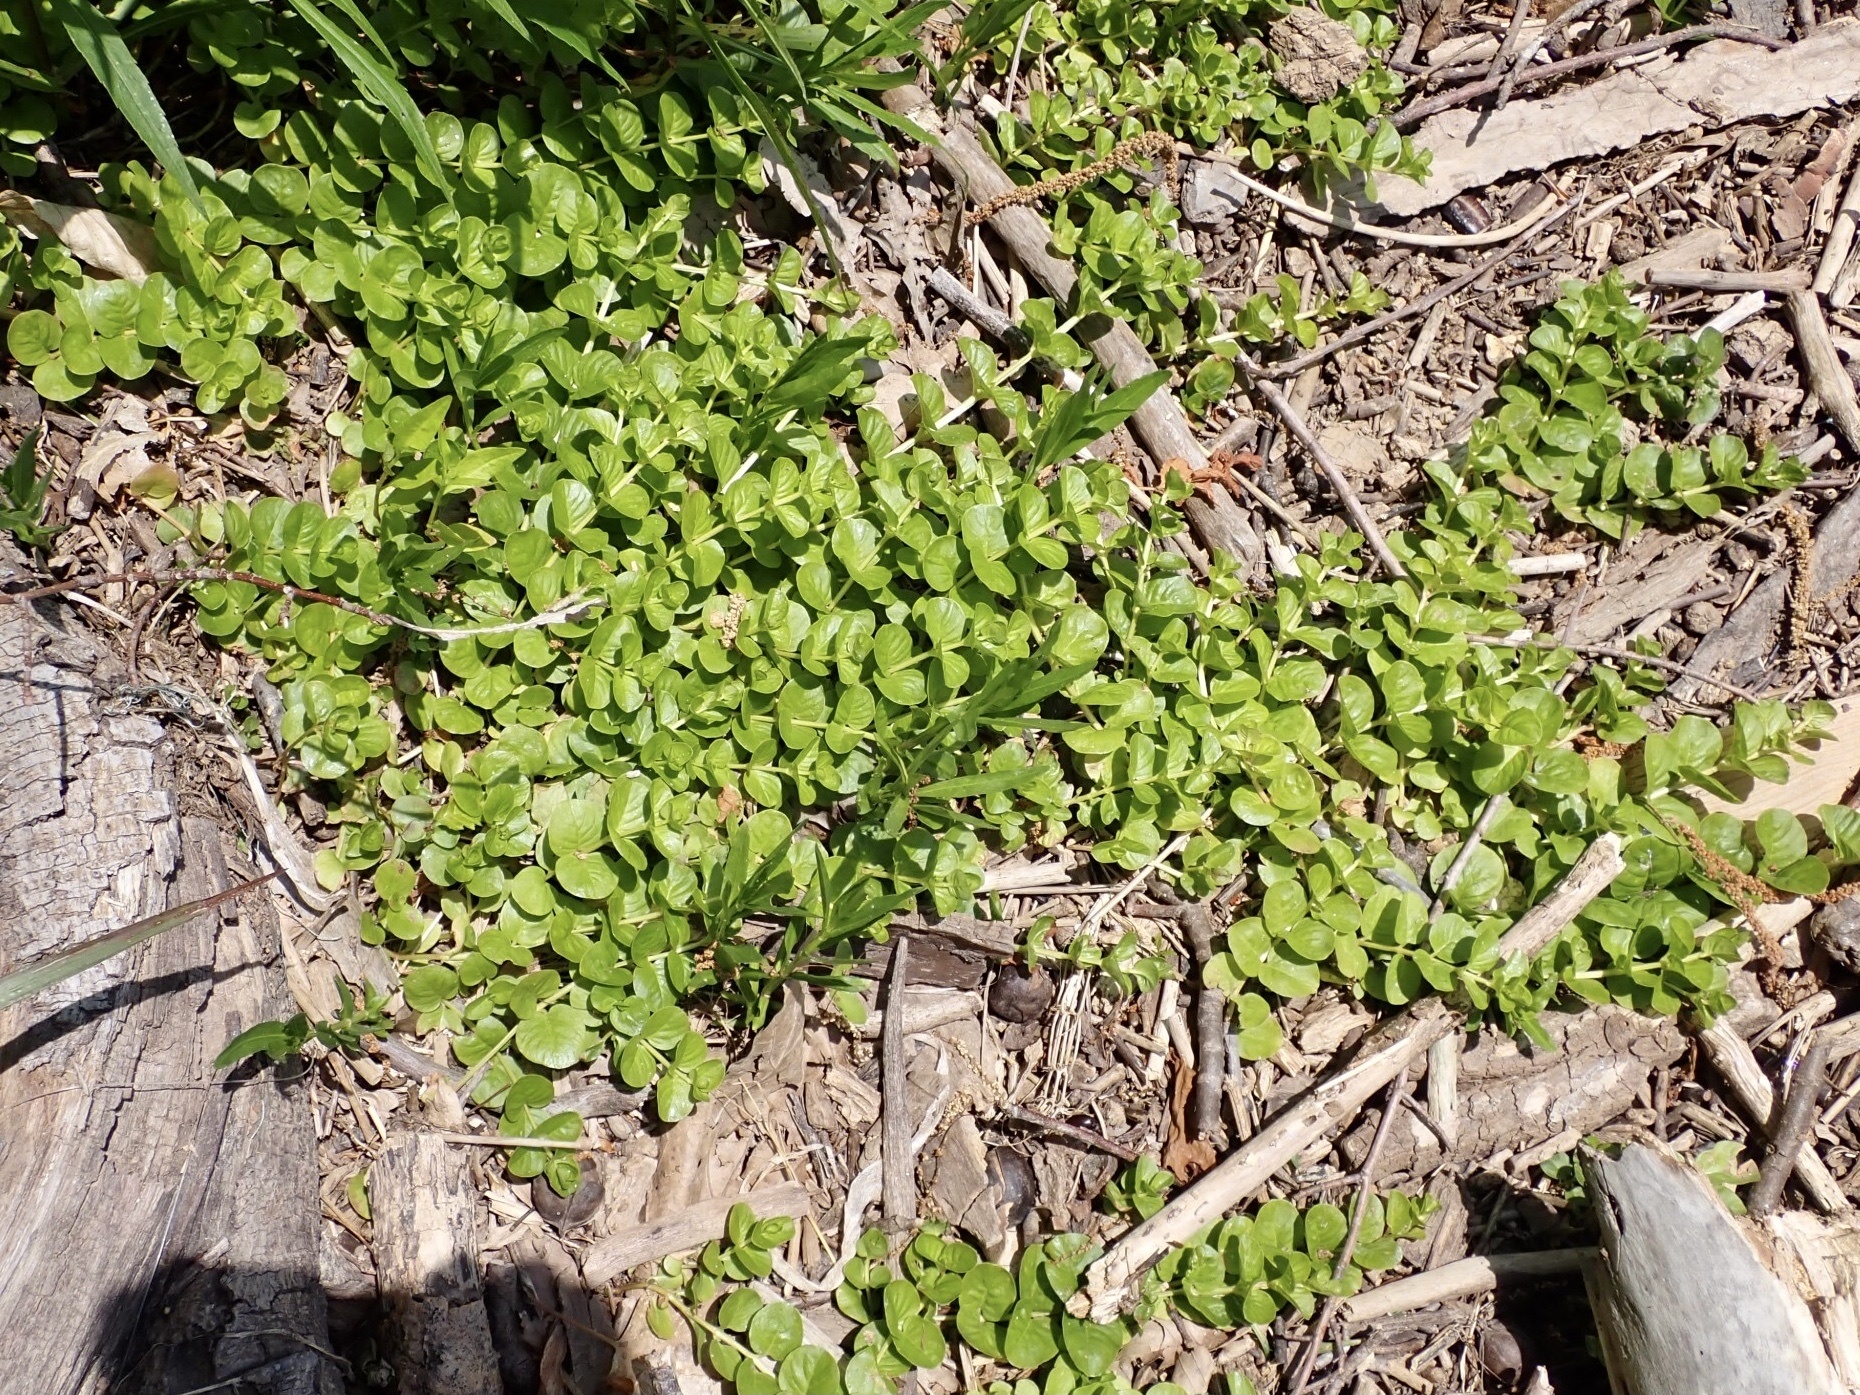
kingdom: Plantae
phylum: Tracheophyta
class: Magnoliopsida
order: Ericales
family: Primulaceae
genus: Lysimachia
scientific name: Lysimachia nummularia
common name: Moneywort
